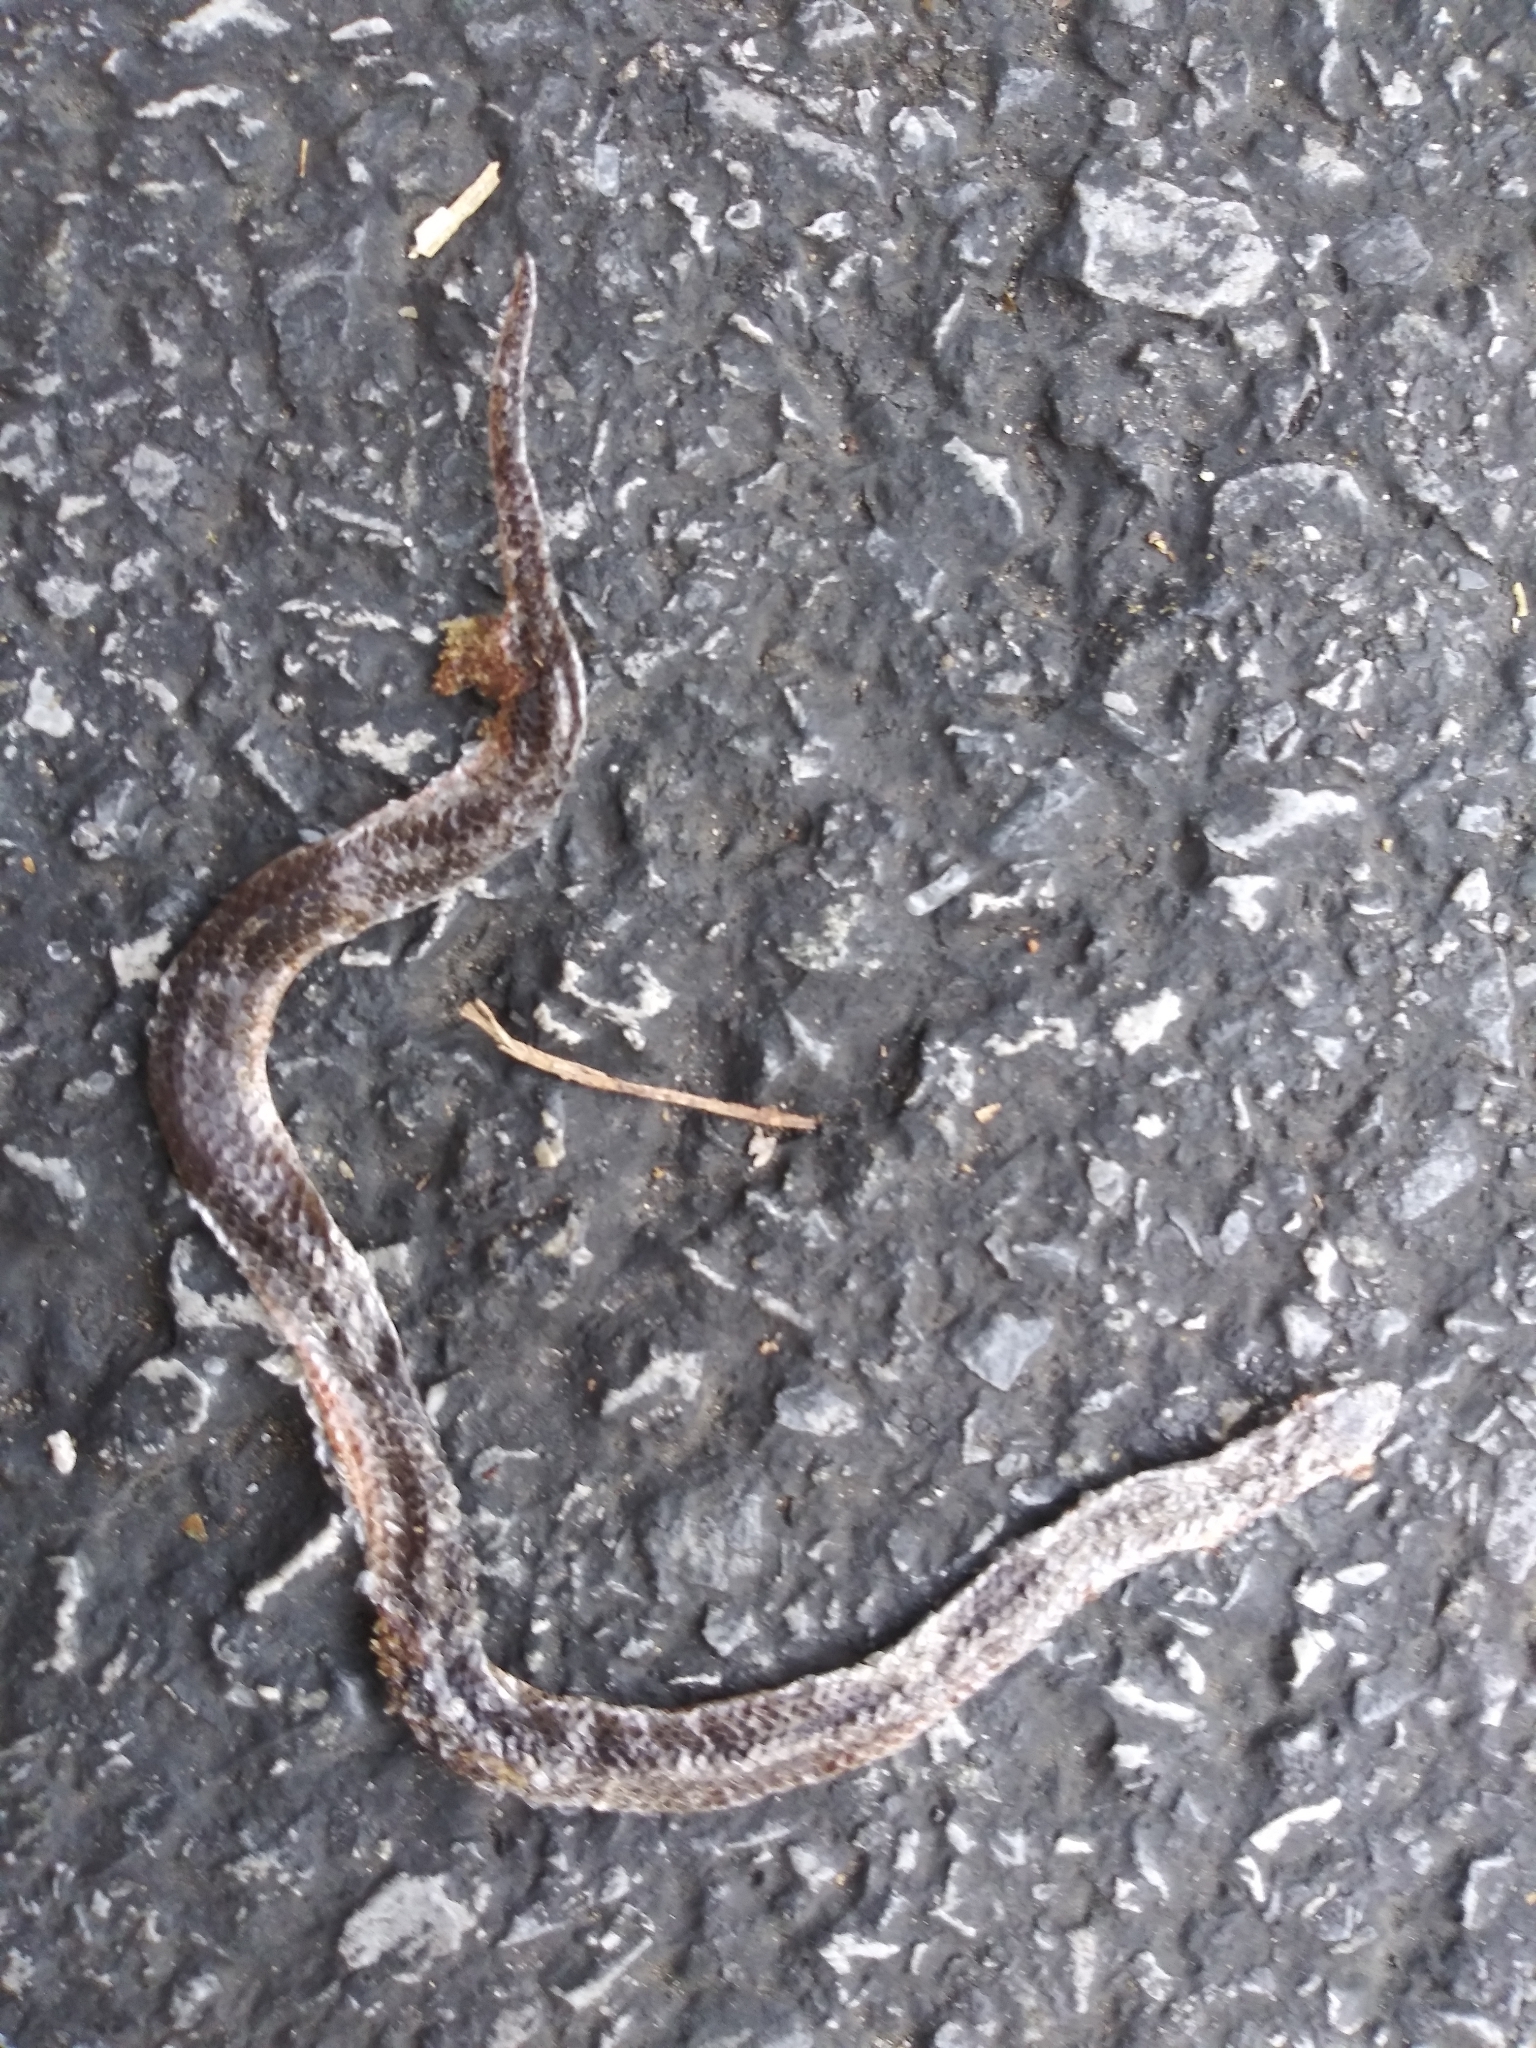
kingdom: Animalia
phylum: Chordata
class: Squamata
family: Colubridae
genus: Carphophis
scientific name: Carphophis amoenus
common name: Eastern worm snake
